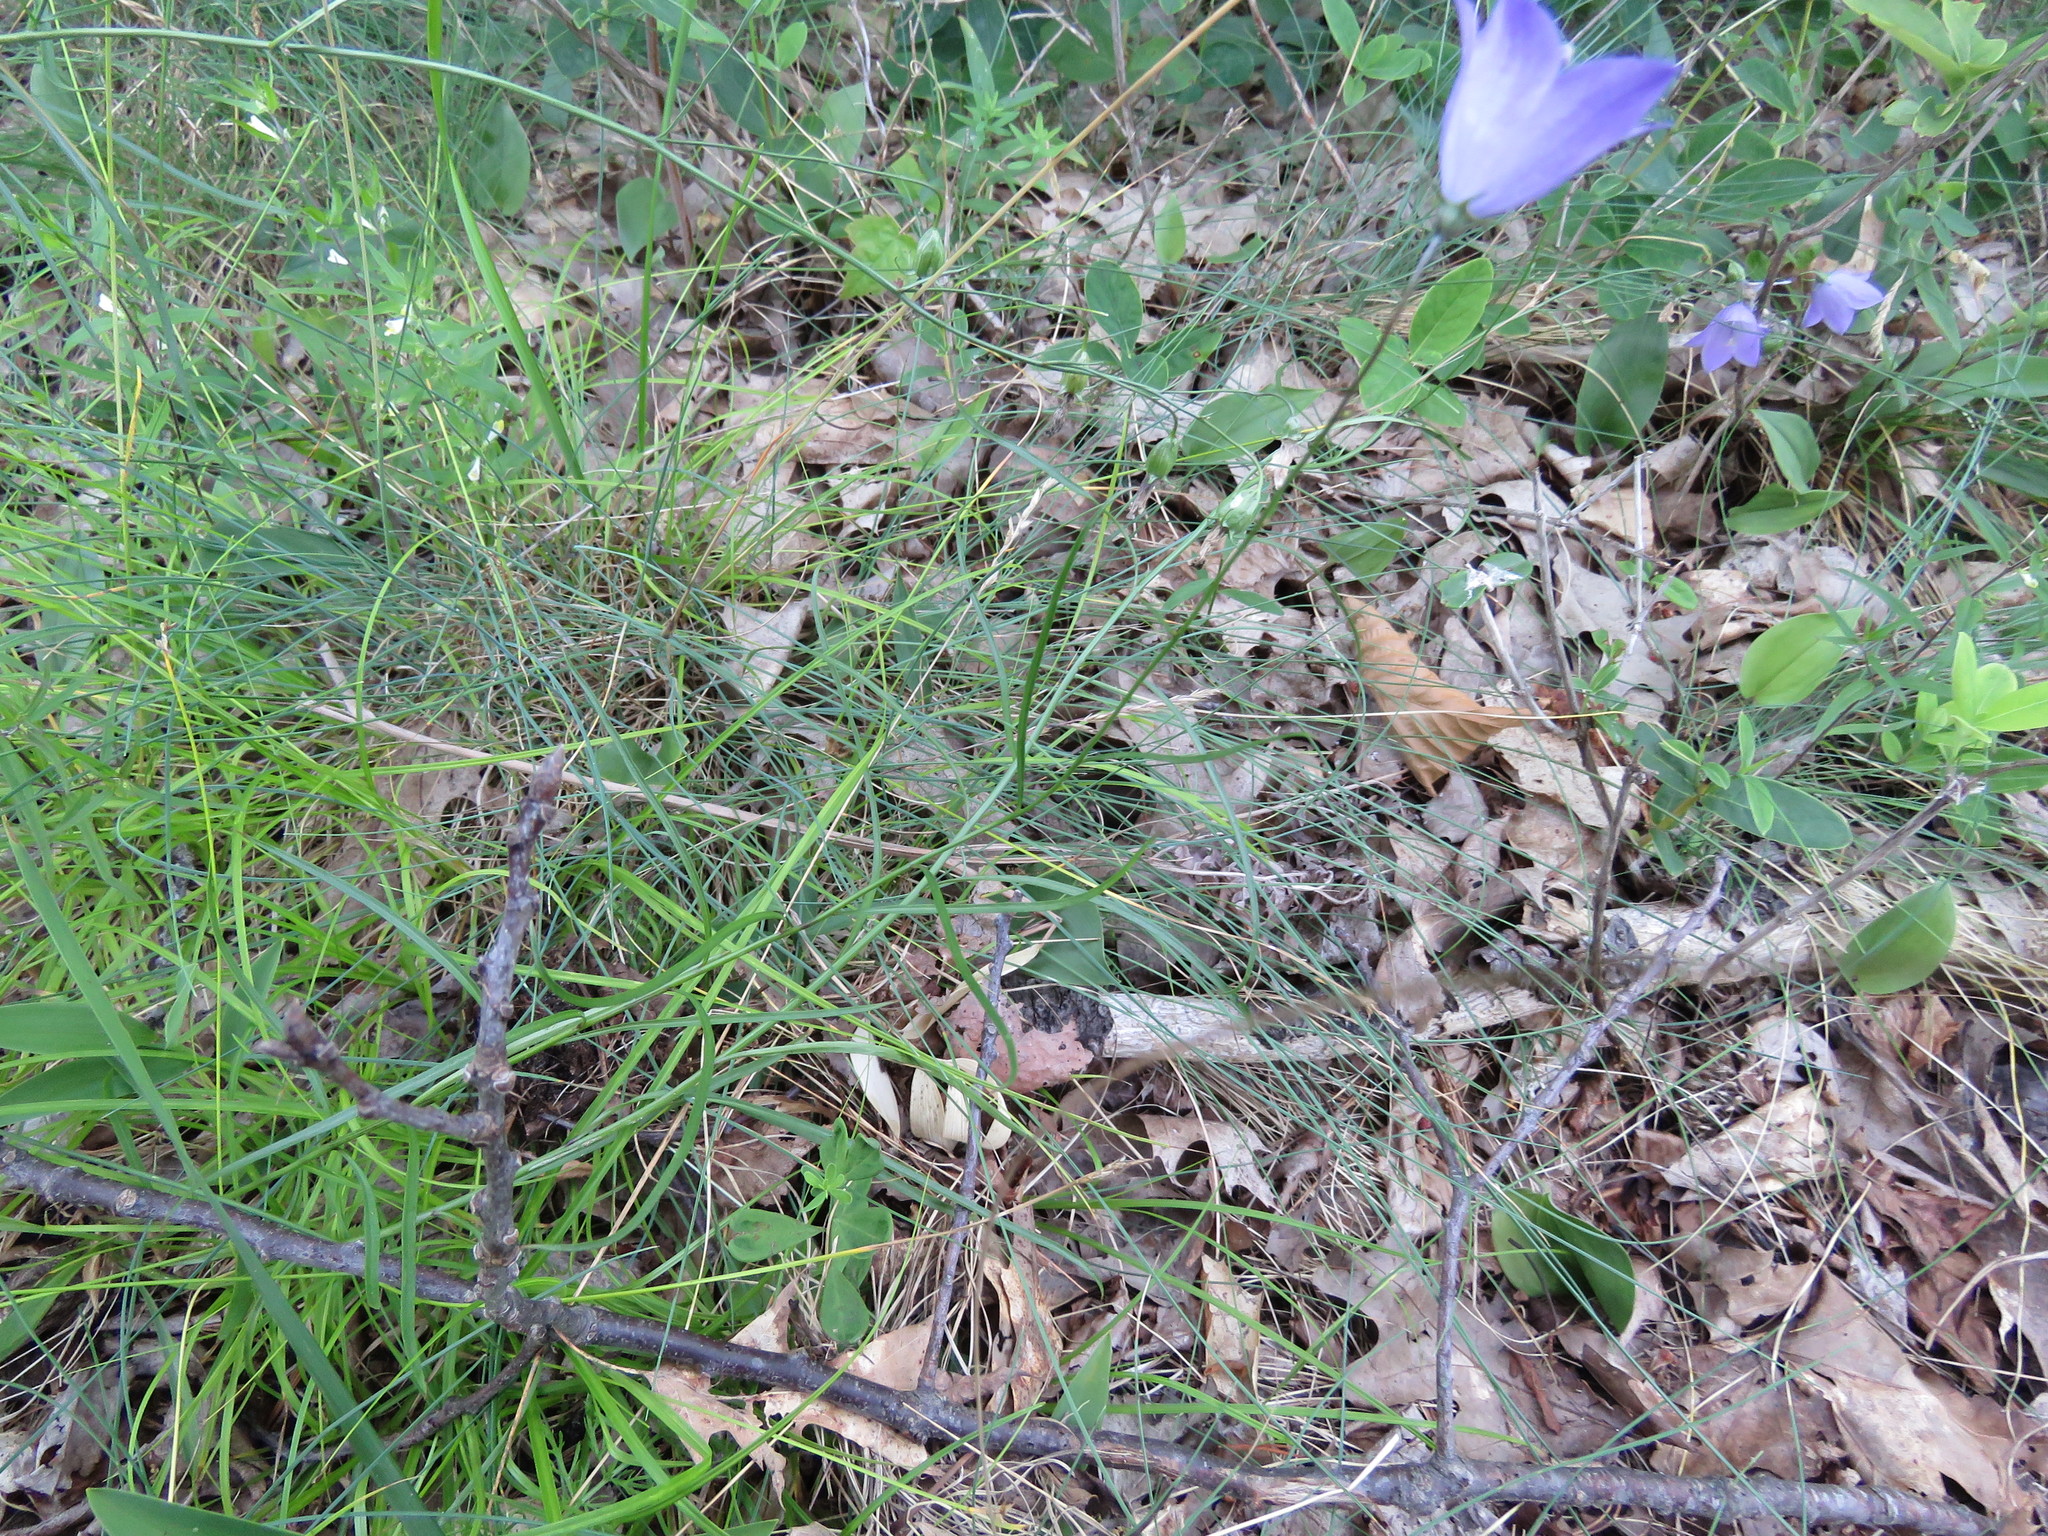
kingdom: Plantae
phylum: Tracheophyta
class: Magnoliopsida
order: Asterales
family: Campanulaceae
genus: Campanula
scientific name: Campanula intercedens
